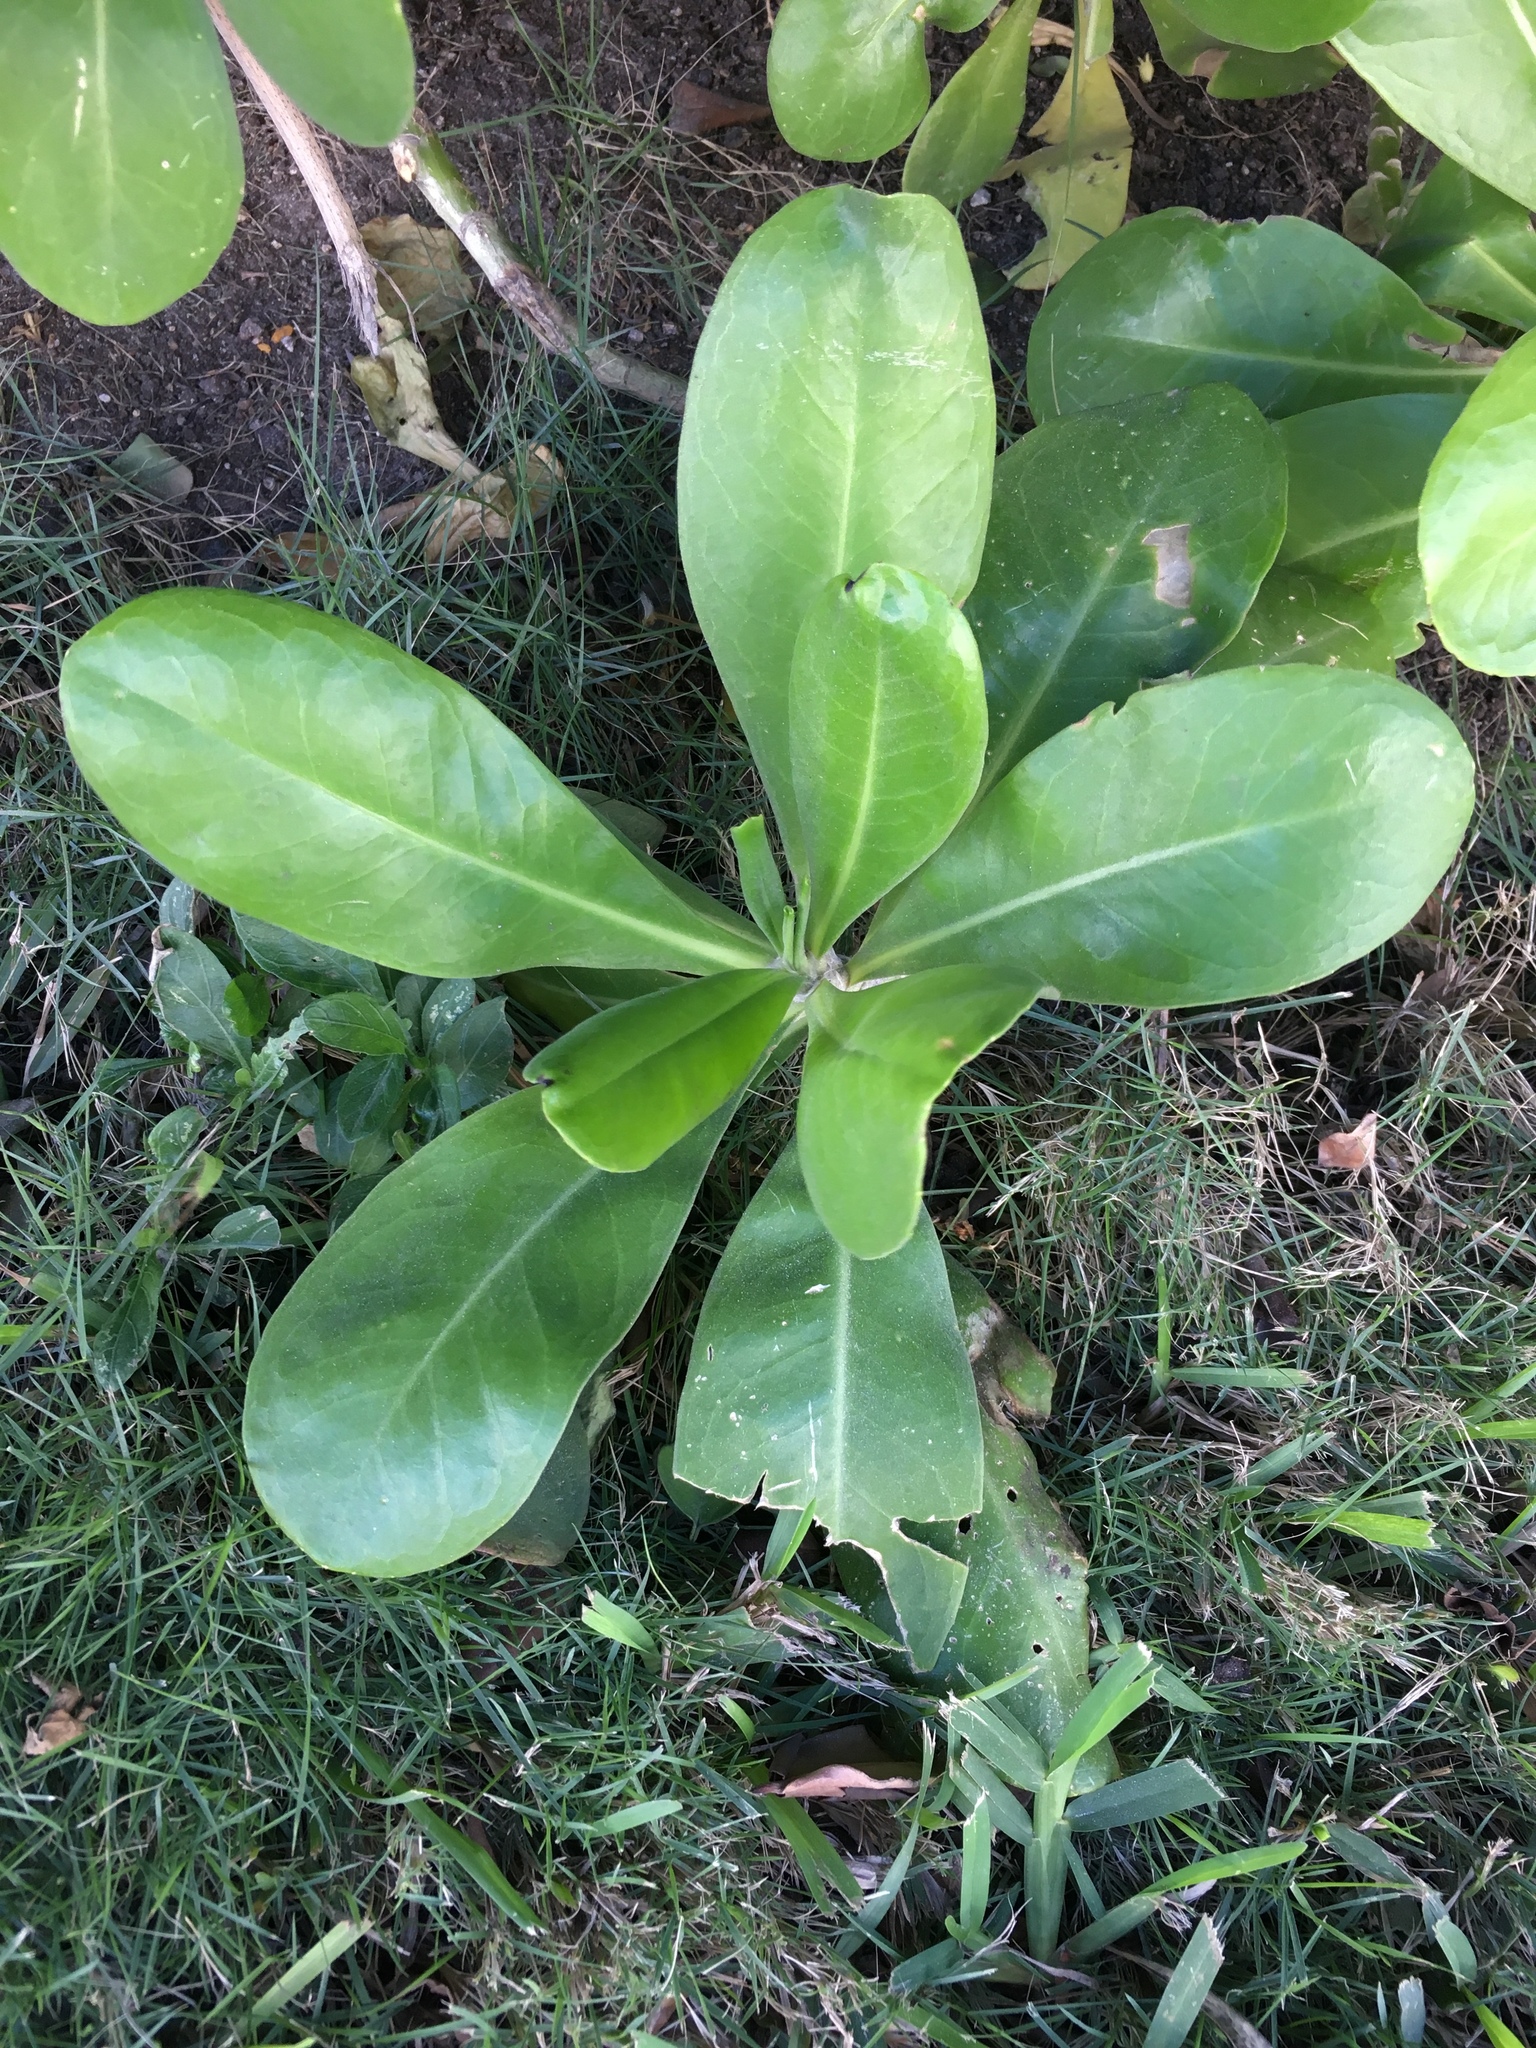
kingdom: Plantae
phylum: Tracheophyta
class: Magnoliopsida
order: Asterales
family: Goodeniaceae
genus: Scaevola
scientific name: Scaevola taccada
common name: Sea lettucetree
